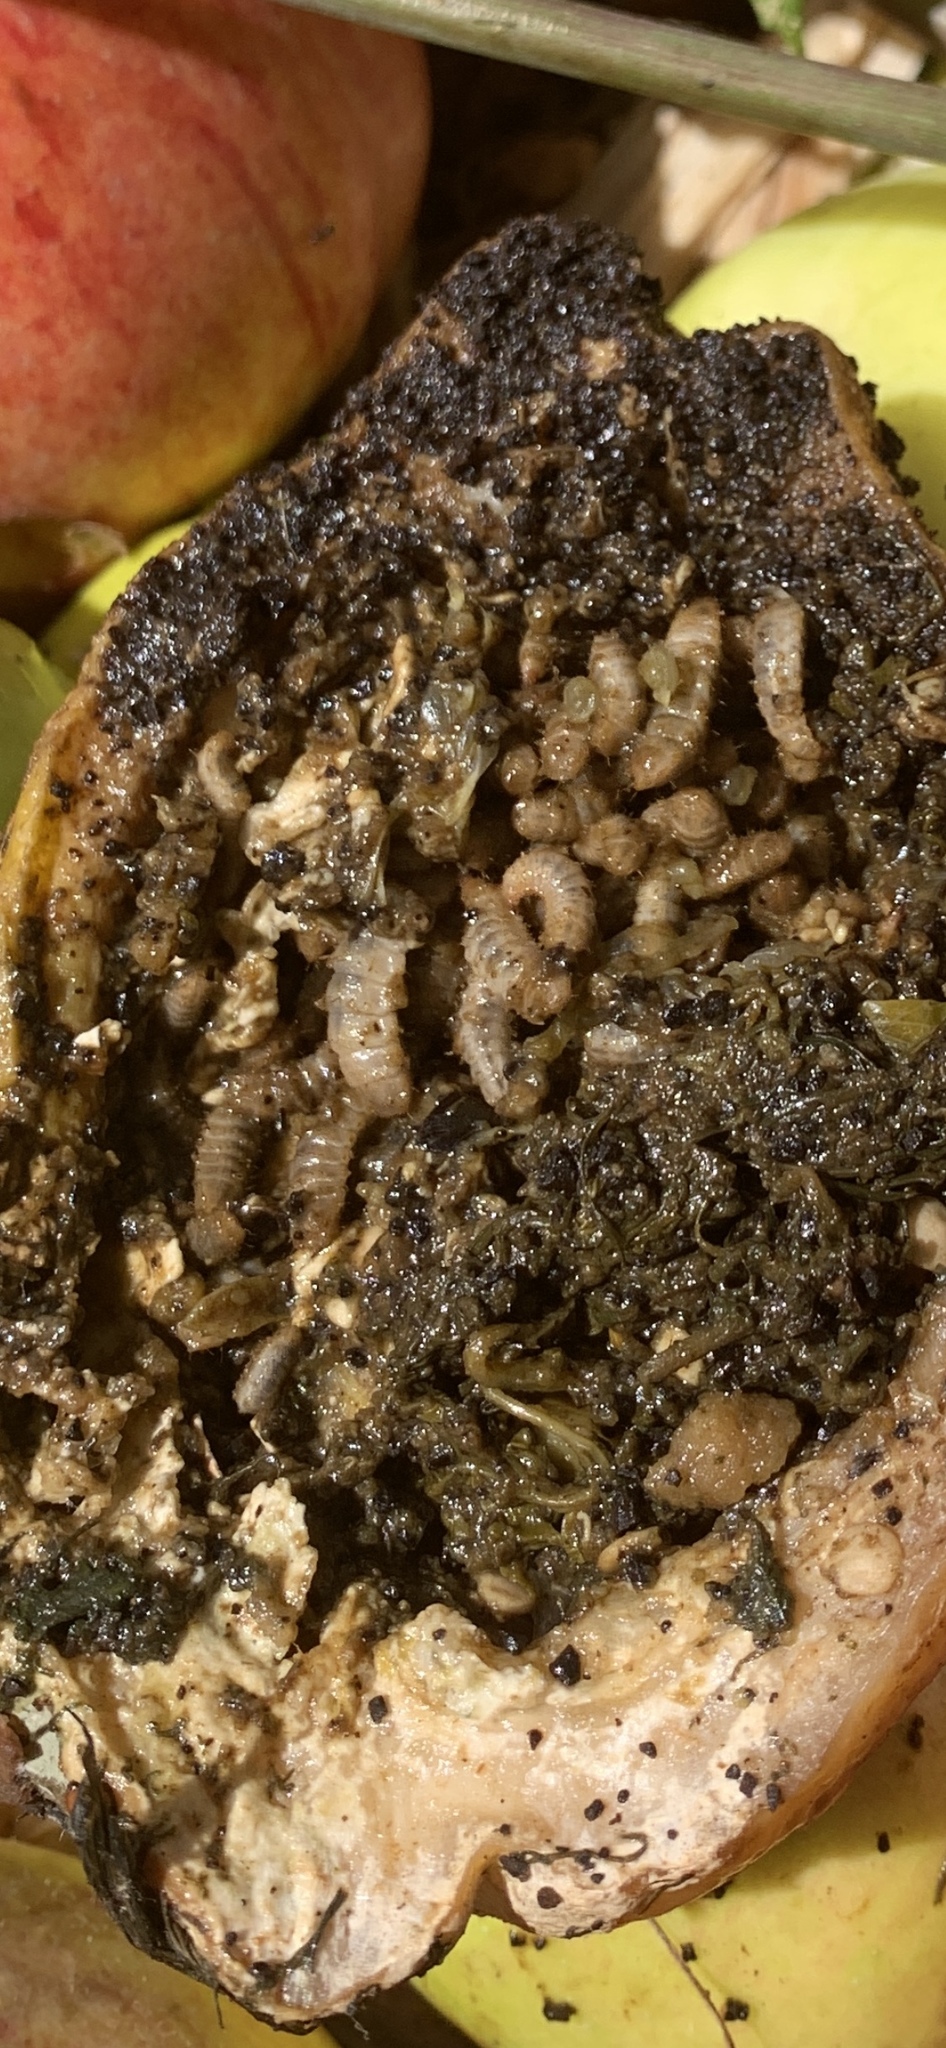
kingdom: Animalia
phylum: Arthropoda
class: Insecta
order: Diptera
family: Stratiomyidae
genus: Hermetia
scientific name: Hermetia illucens
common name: Black soldier fly
